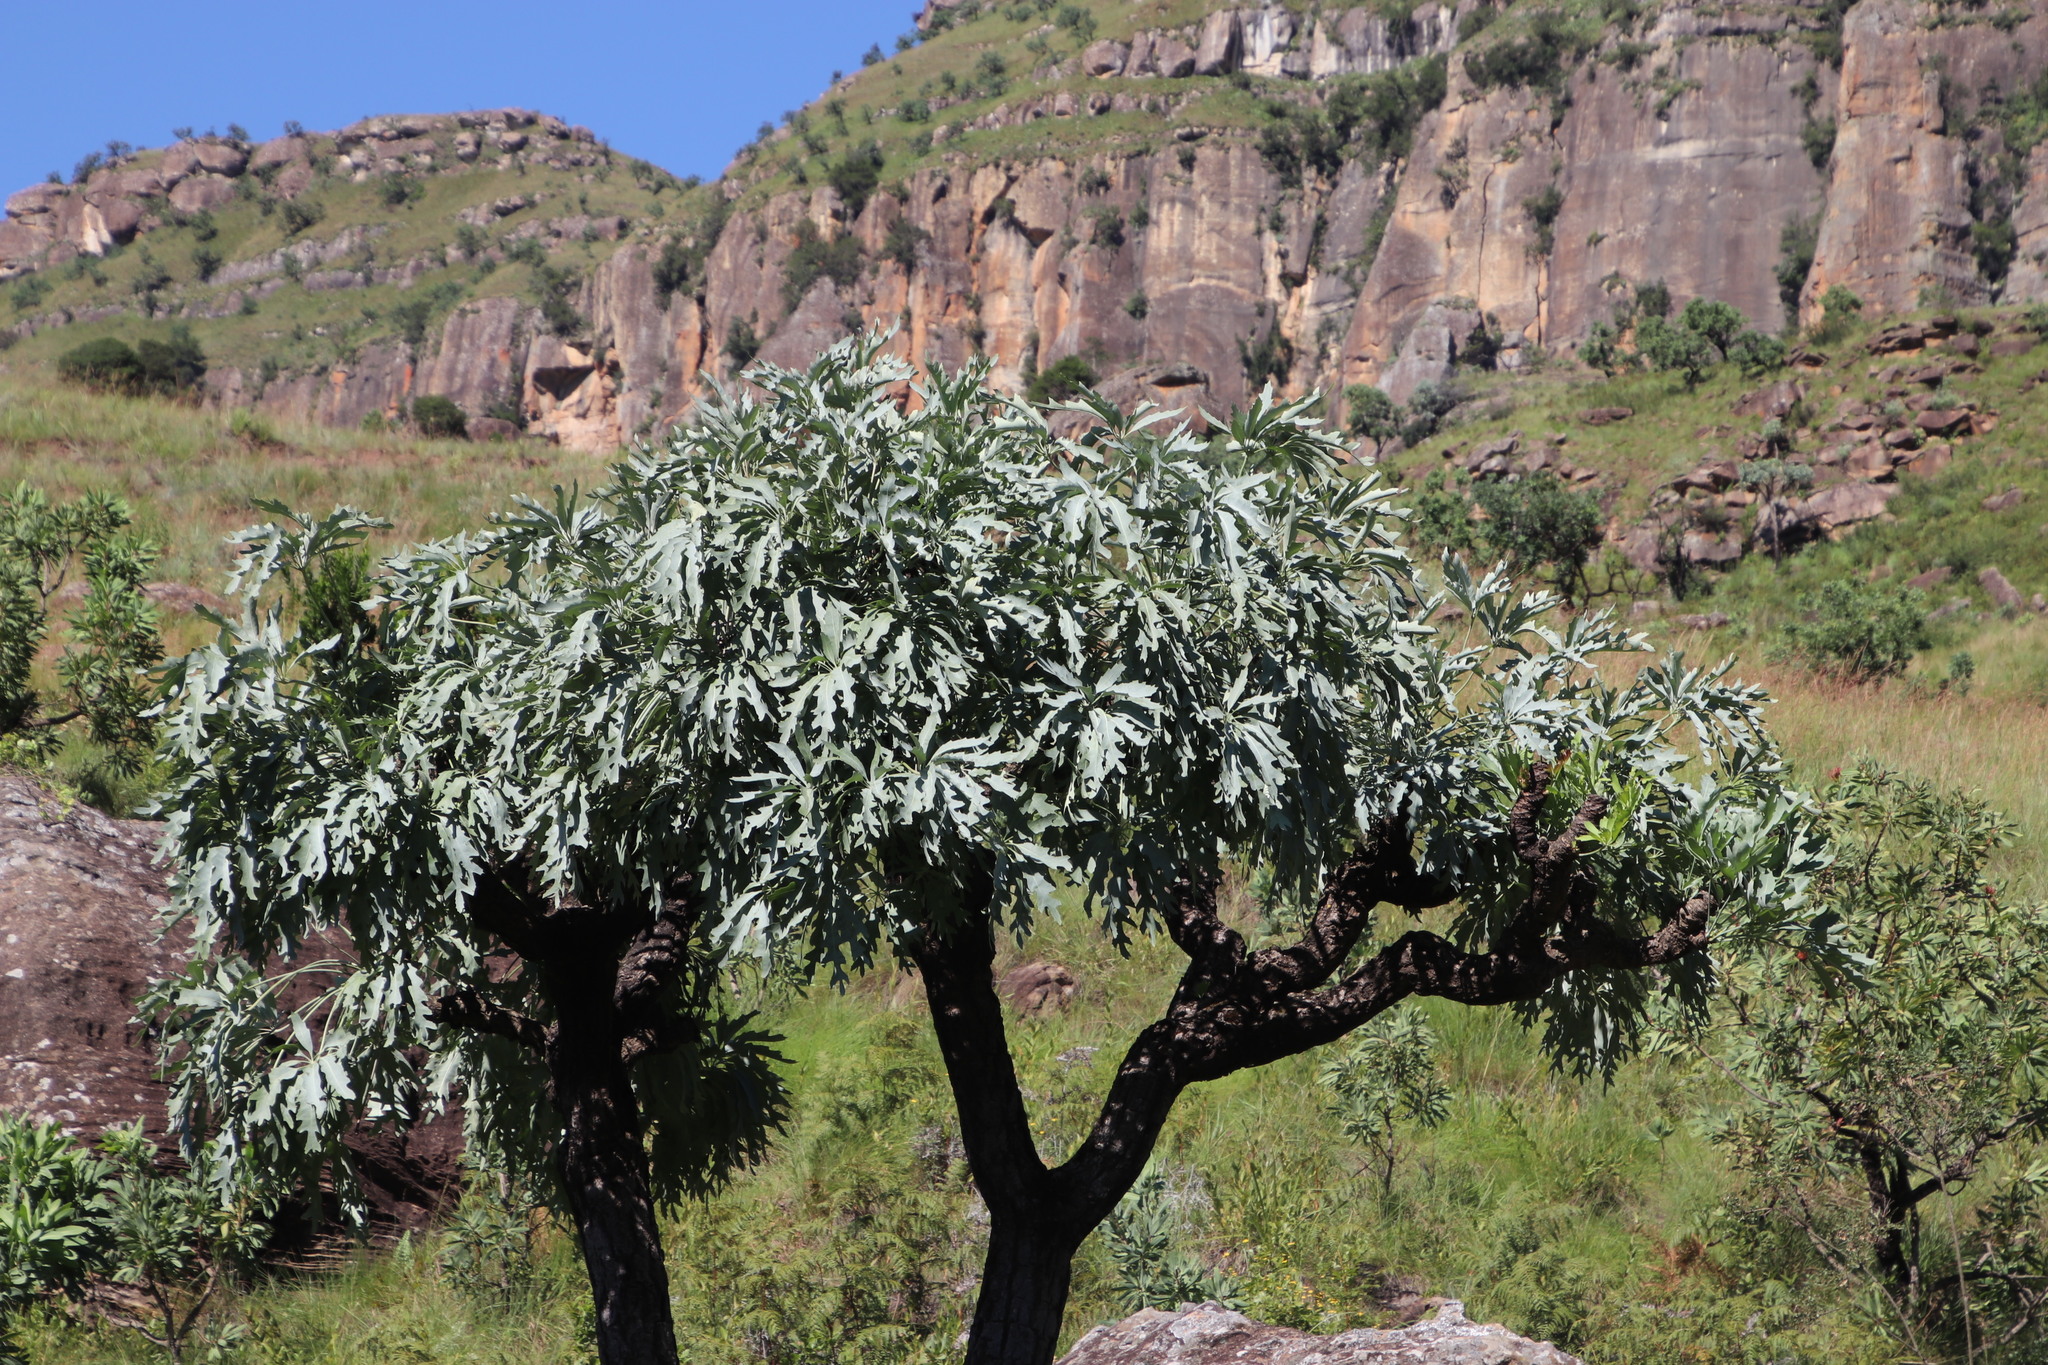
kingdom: Plantae
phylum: Tracheophyta
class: Magnoliopsida
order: Apiales
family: Araliaceae
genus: Cussonia
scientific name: Cussonia paniculata
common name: Cabbagetree
